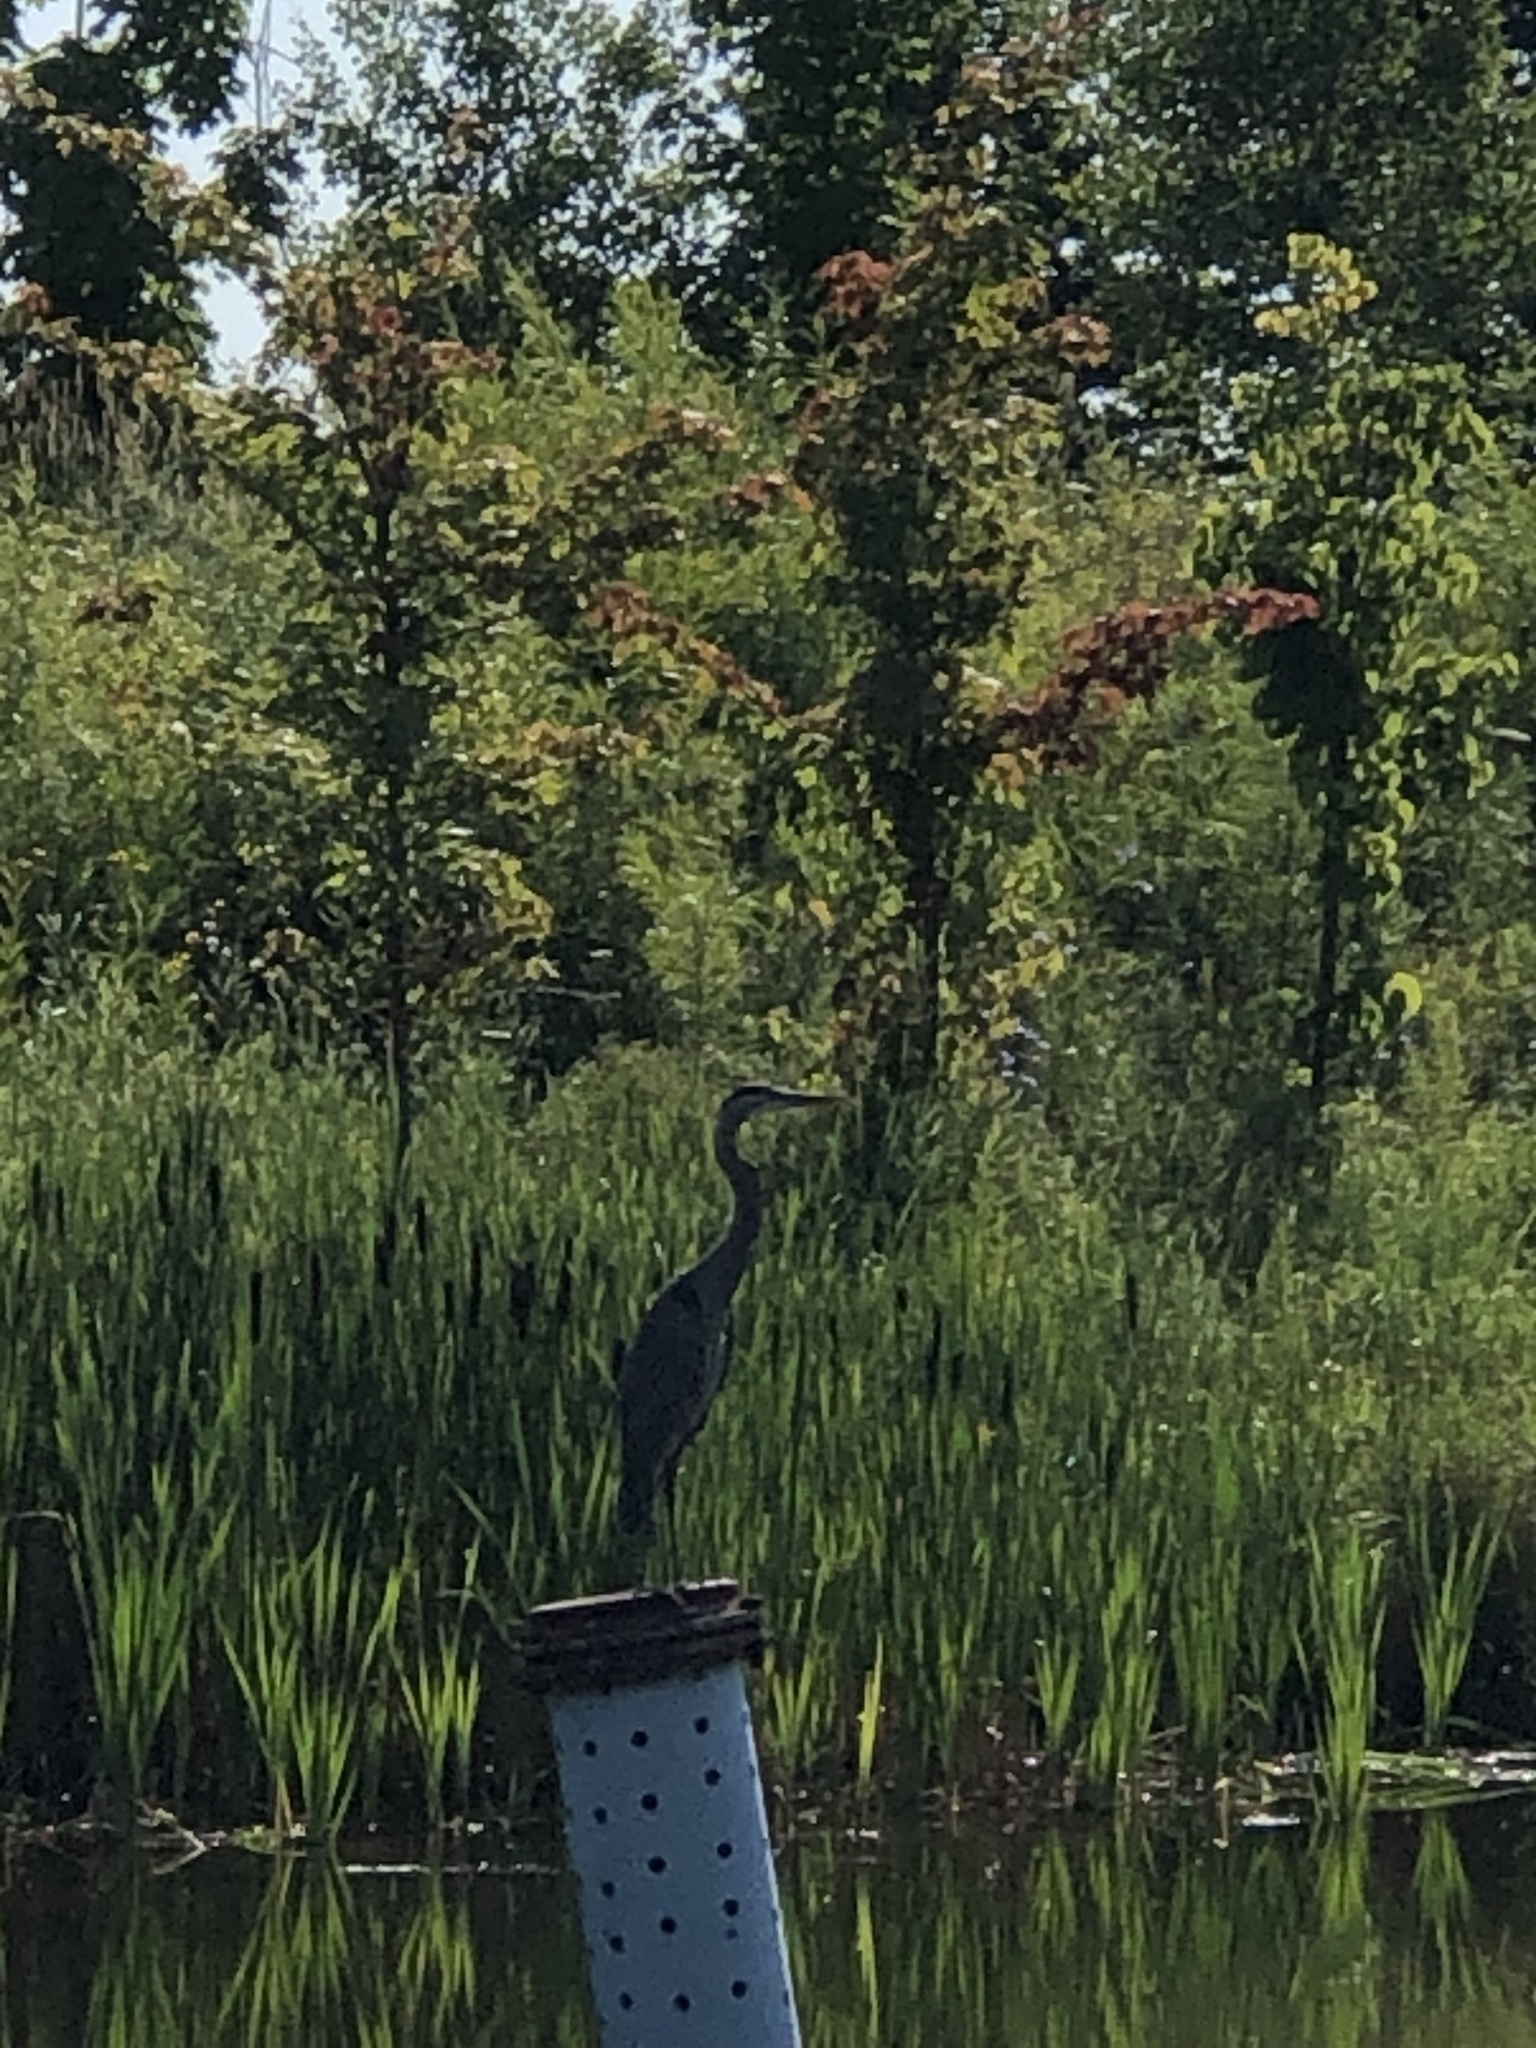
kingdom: Animalia
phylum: Chordata
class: Aves
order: Pelecaniformes
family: Ardeidae
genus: Ardea
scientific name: Ardea herodias
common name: Great blue heron
